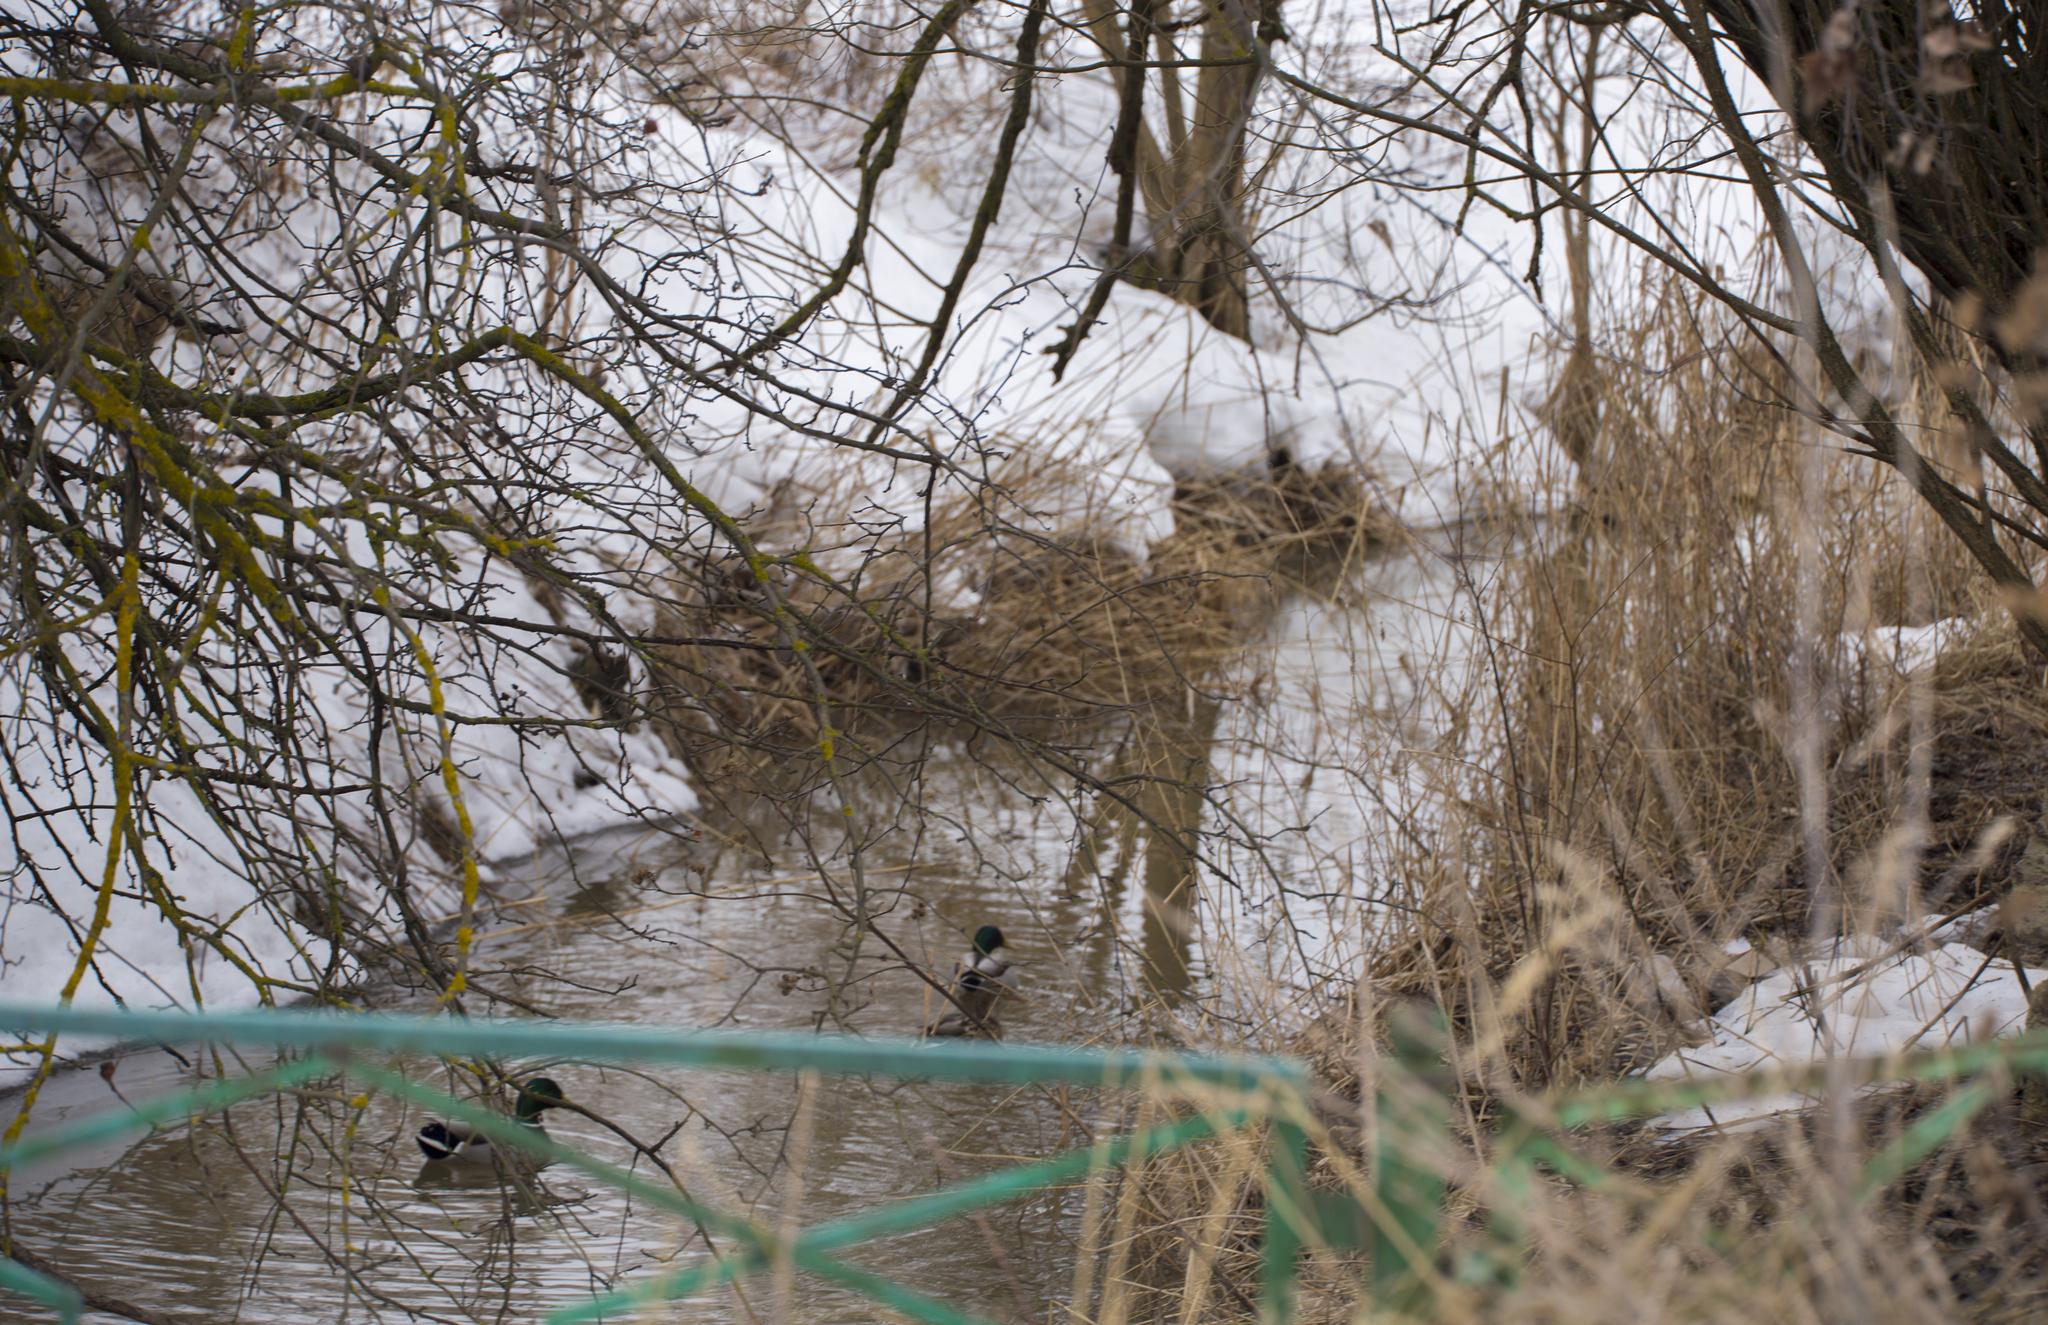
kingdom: Animalia
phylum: Chordata
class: Aves
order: Anseriformes
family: Anatidae
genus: Anas
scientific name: Anas platyrhynchos
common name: Mallard
